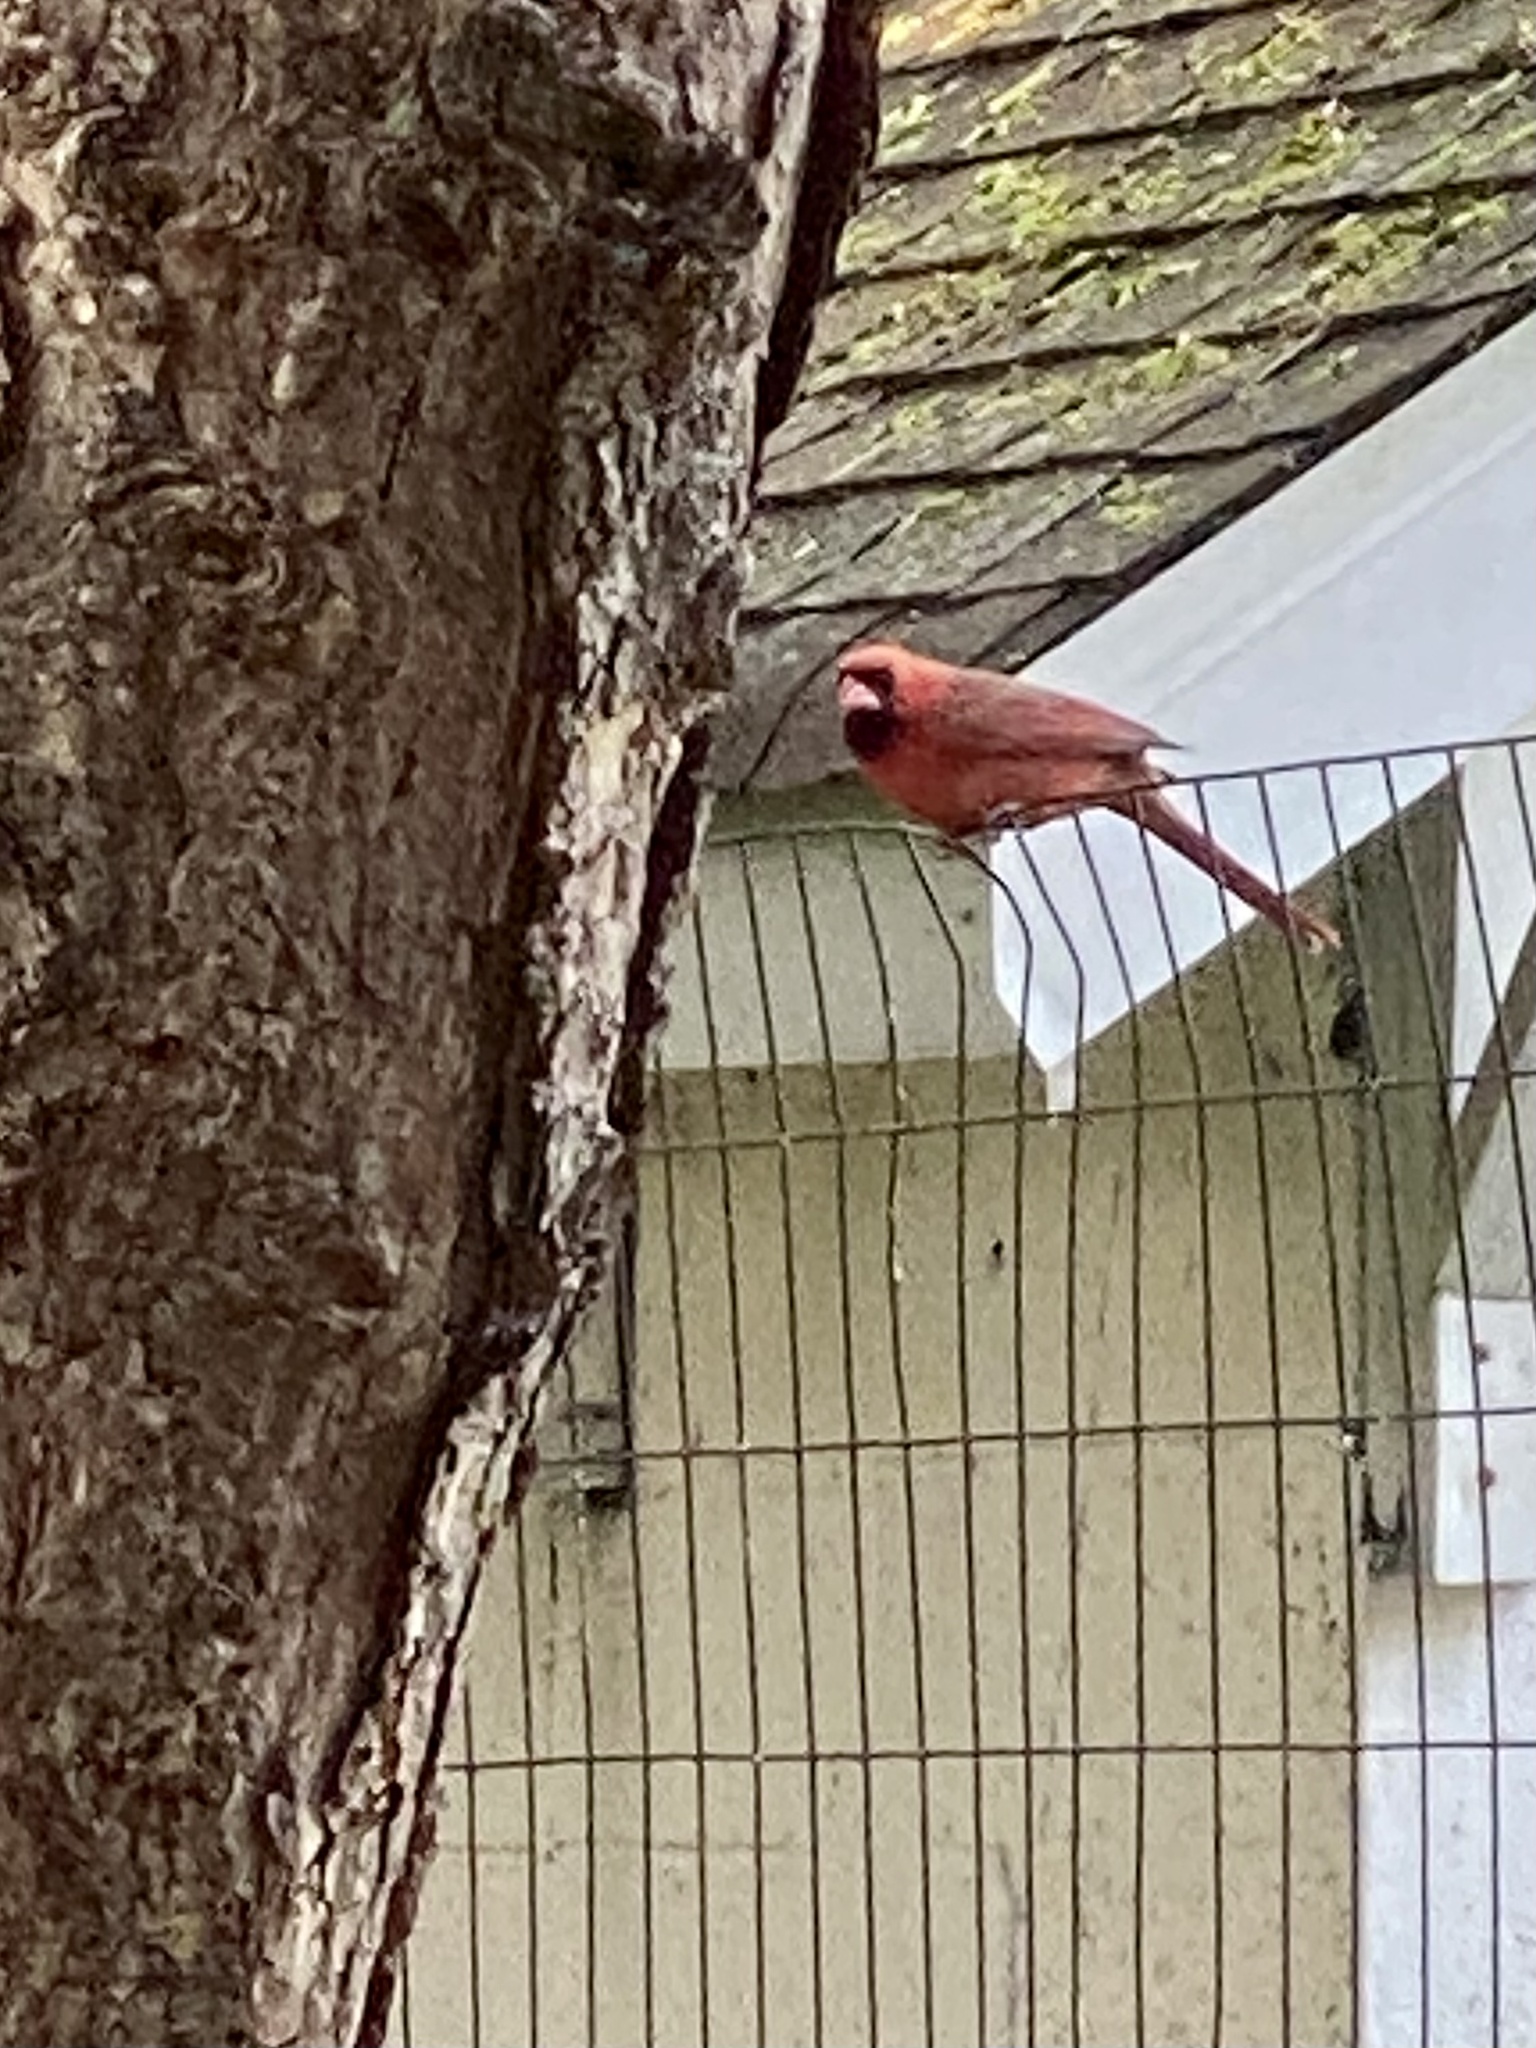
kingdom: Animalia
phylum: Chordata
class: Aves
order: Passeriformes
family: Cardinalidae
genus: Cardinalis
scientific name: Cardinalis cardinalis
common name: Northern cardinal
